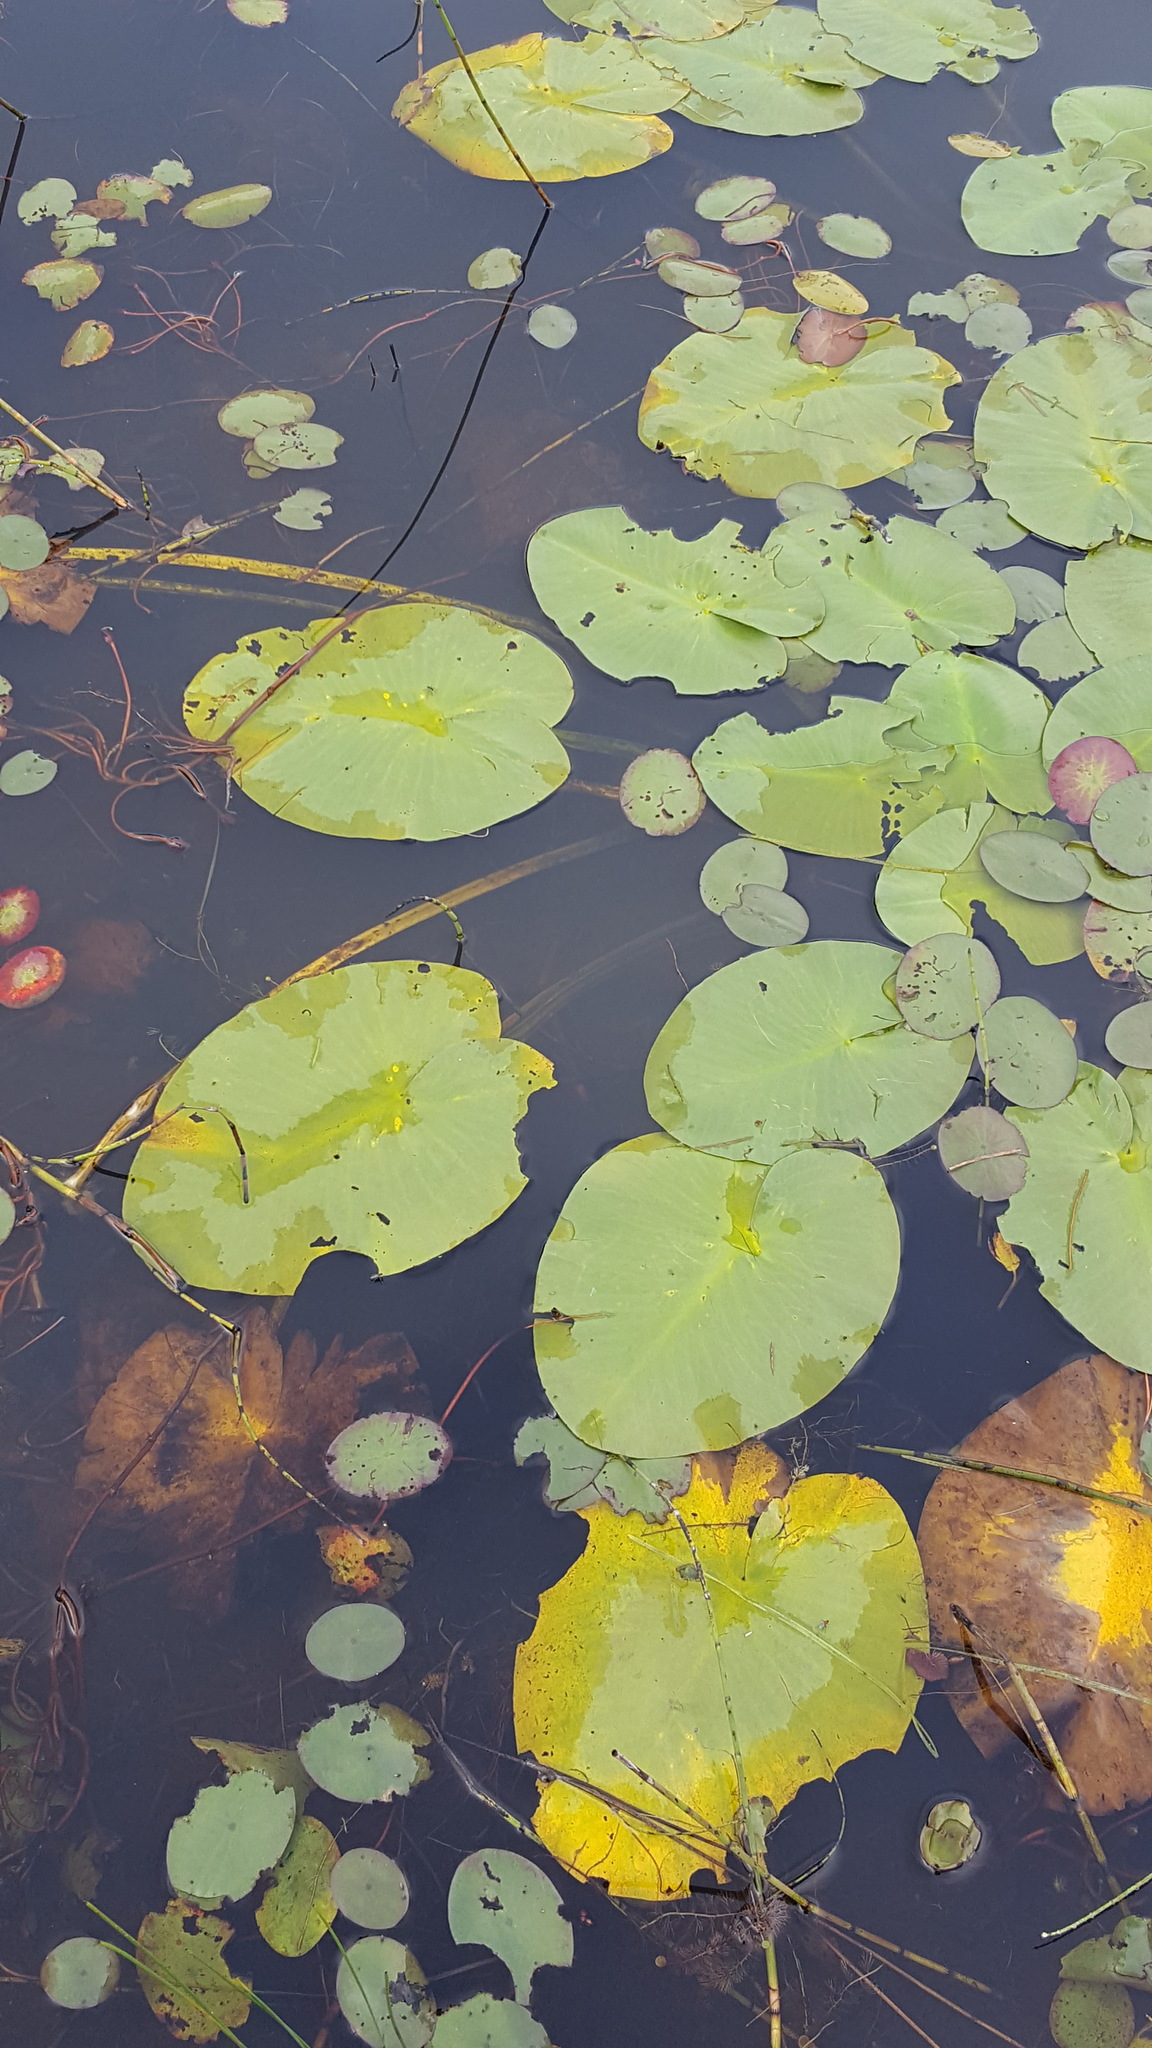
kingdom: Plantae
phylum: Tracheophyta
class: Magnoliopsida
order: Nymphaeales
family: Nymphaeaceae
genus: Nuphar
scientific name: Nuphar variegata
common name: Beaver-root
